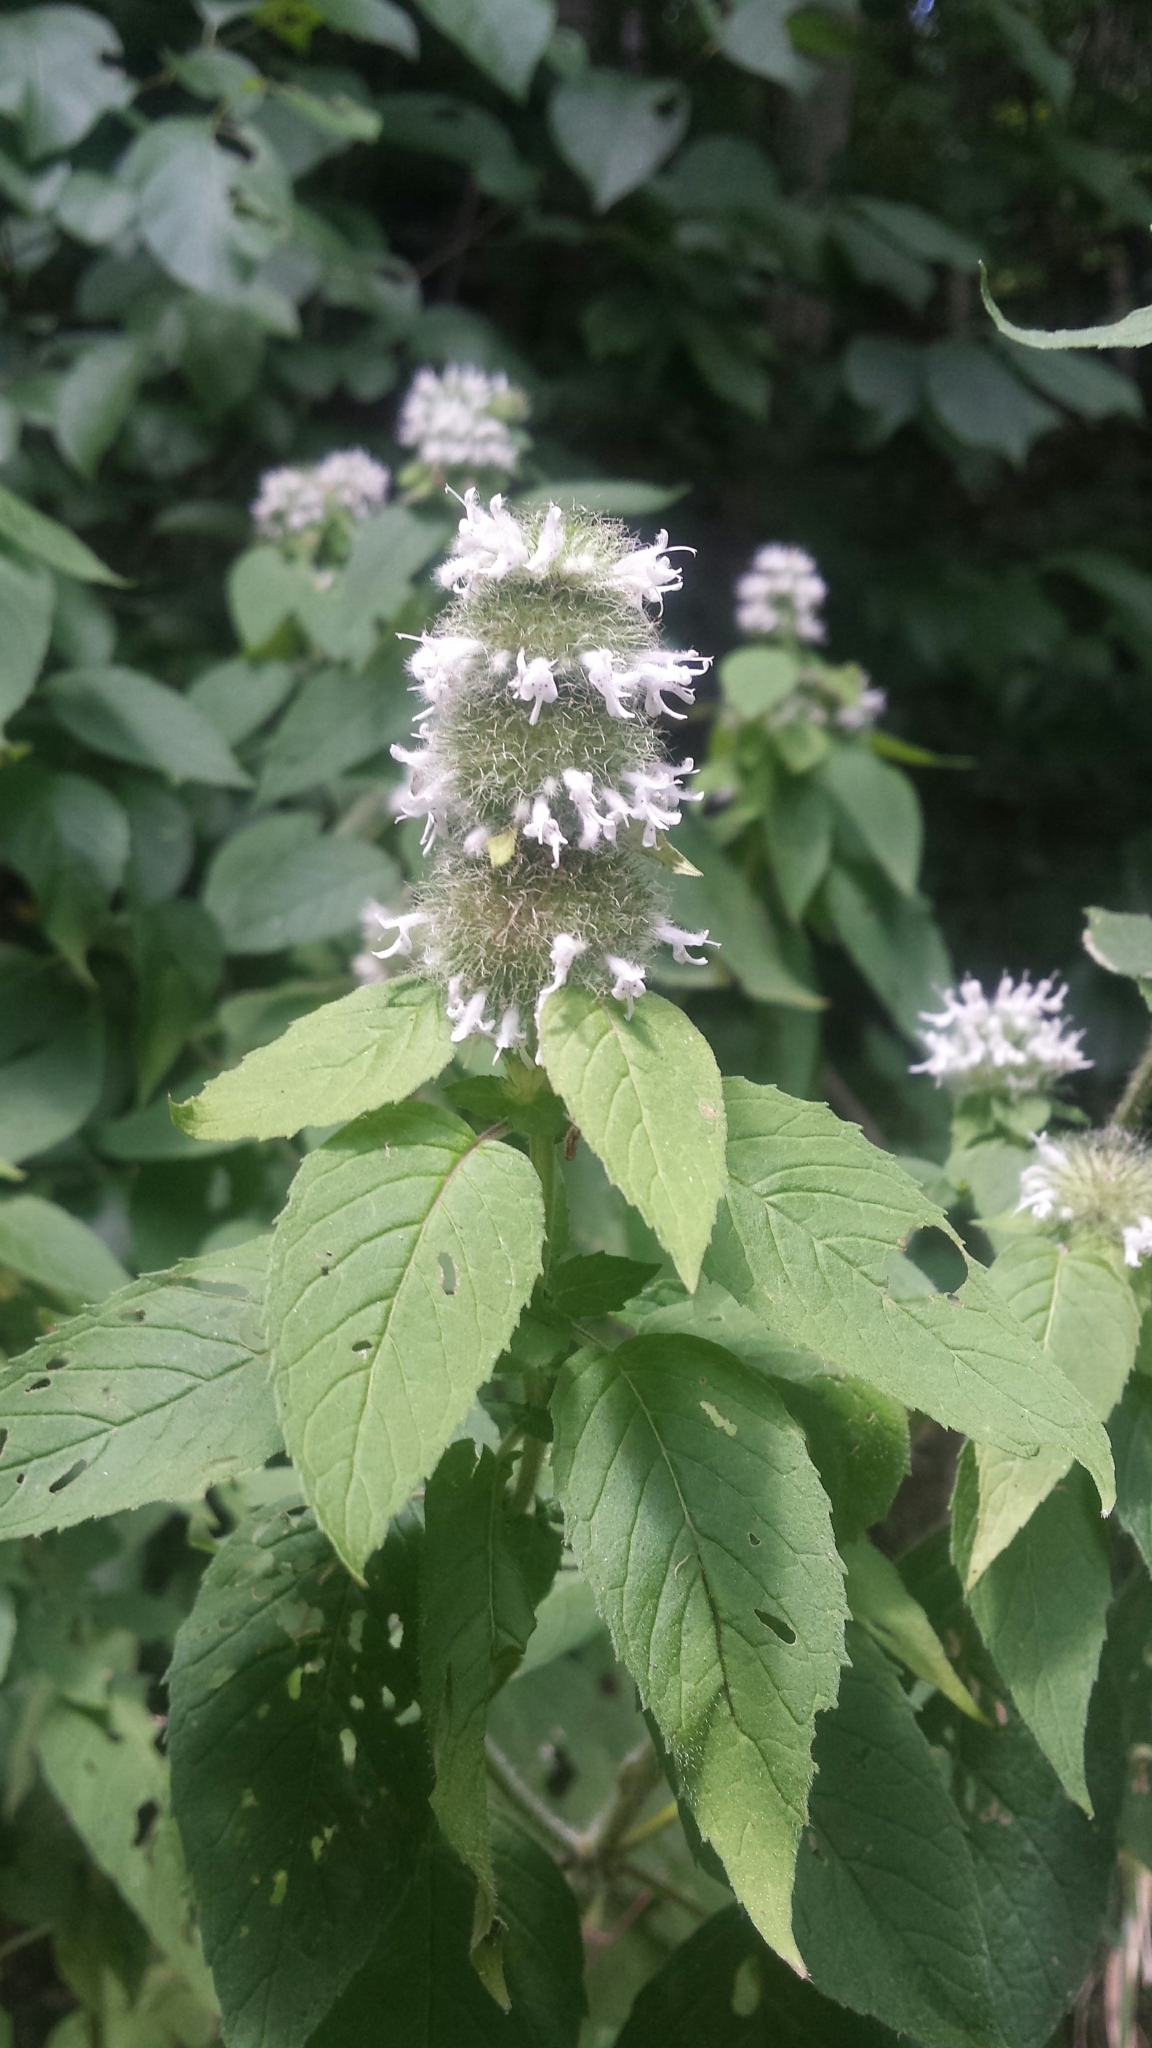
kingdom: Plantae
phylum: Tracheophyta
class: Magnoliopsida
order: Lamiales
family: Lamiaceae
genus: Blephilia
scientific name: Blephilia hirsuta
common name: Hairy blephilia
